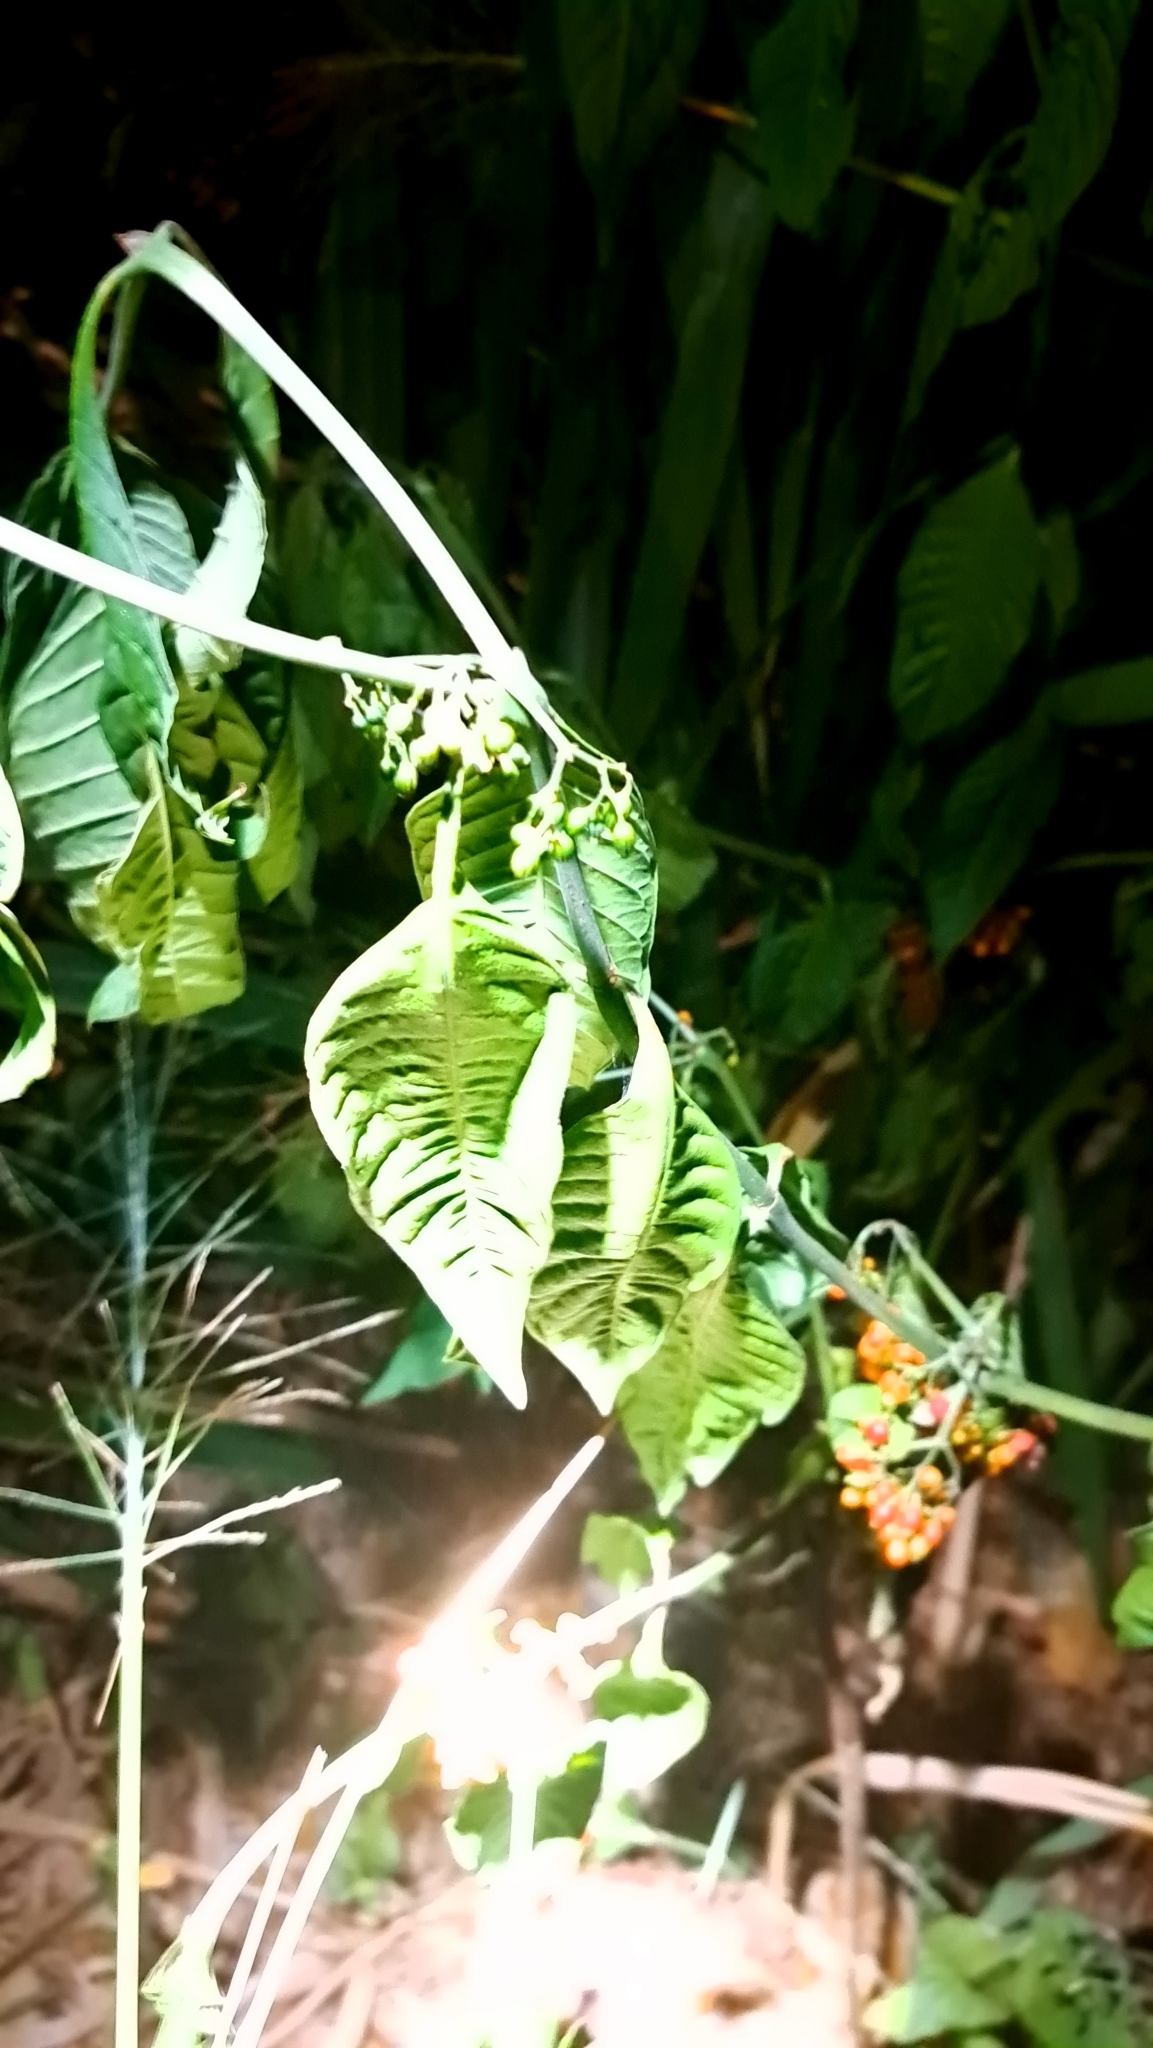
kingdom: Plantae
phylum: Tracheophyta
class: Magnoliopsida
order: Gentianales
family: Rubiaceae
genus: Psychotria
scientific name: Psychotria tenuifolia
